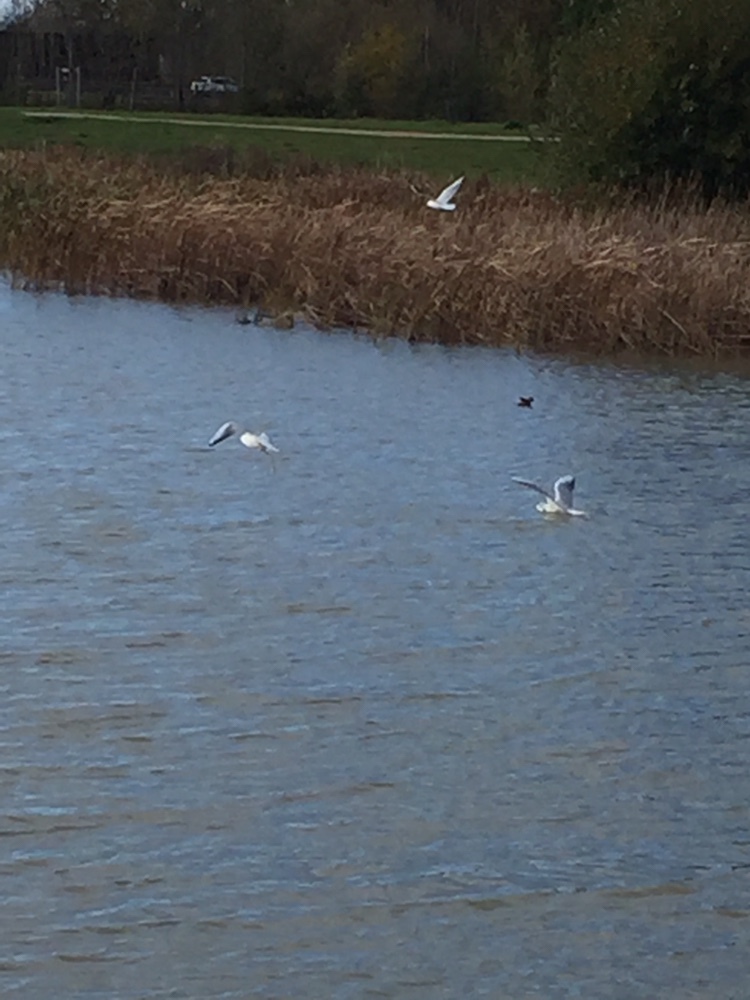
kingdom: Animalia
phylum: Chordata
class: Aves
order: Charadriiformes
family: Laridae
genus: Chroicocephalus
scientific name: Chroicocephalus ridibundus
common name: Black-headed gull
